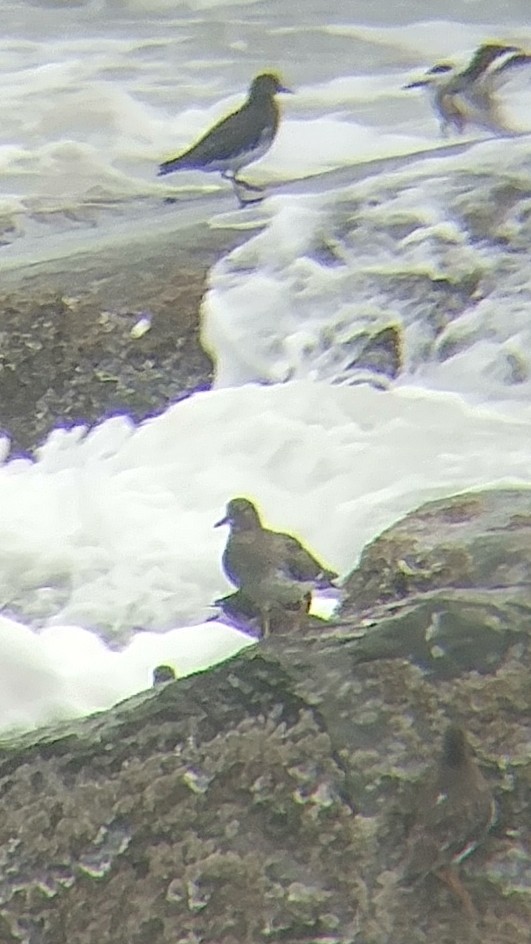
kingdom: Animalia
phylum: Chordata
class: Aves
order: Charadriiformes
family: Scolopacidae
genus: Calidris
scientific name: Calidris virgata
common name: Surfbird
